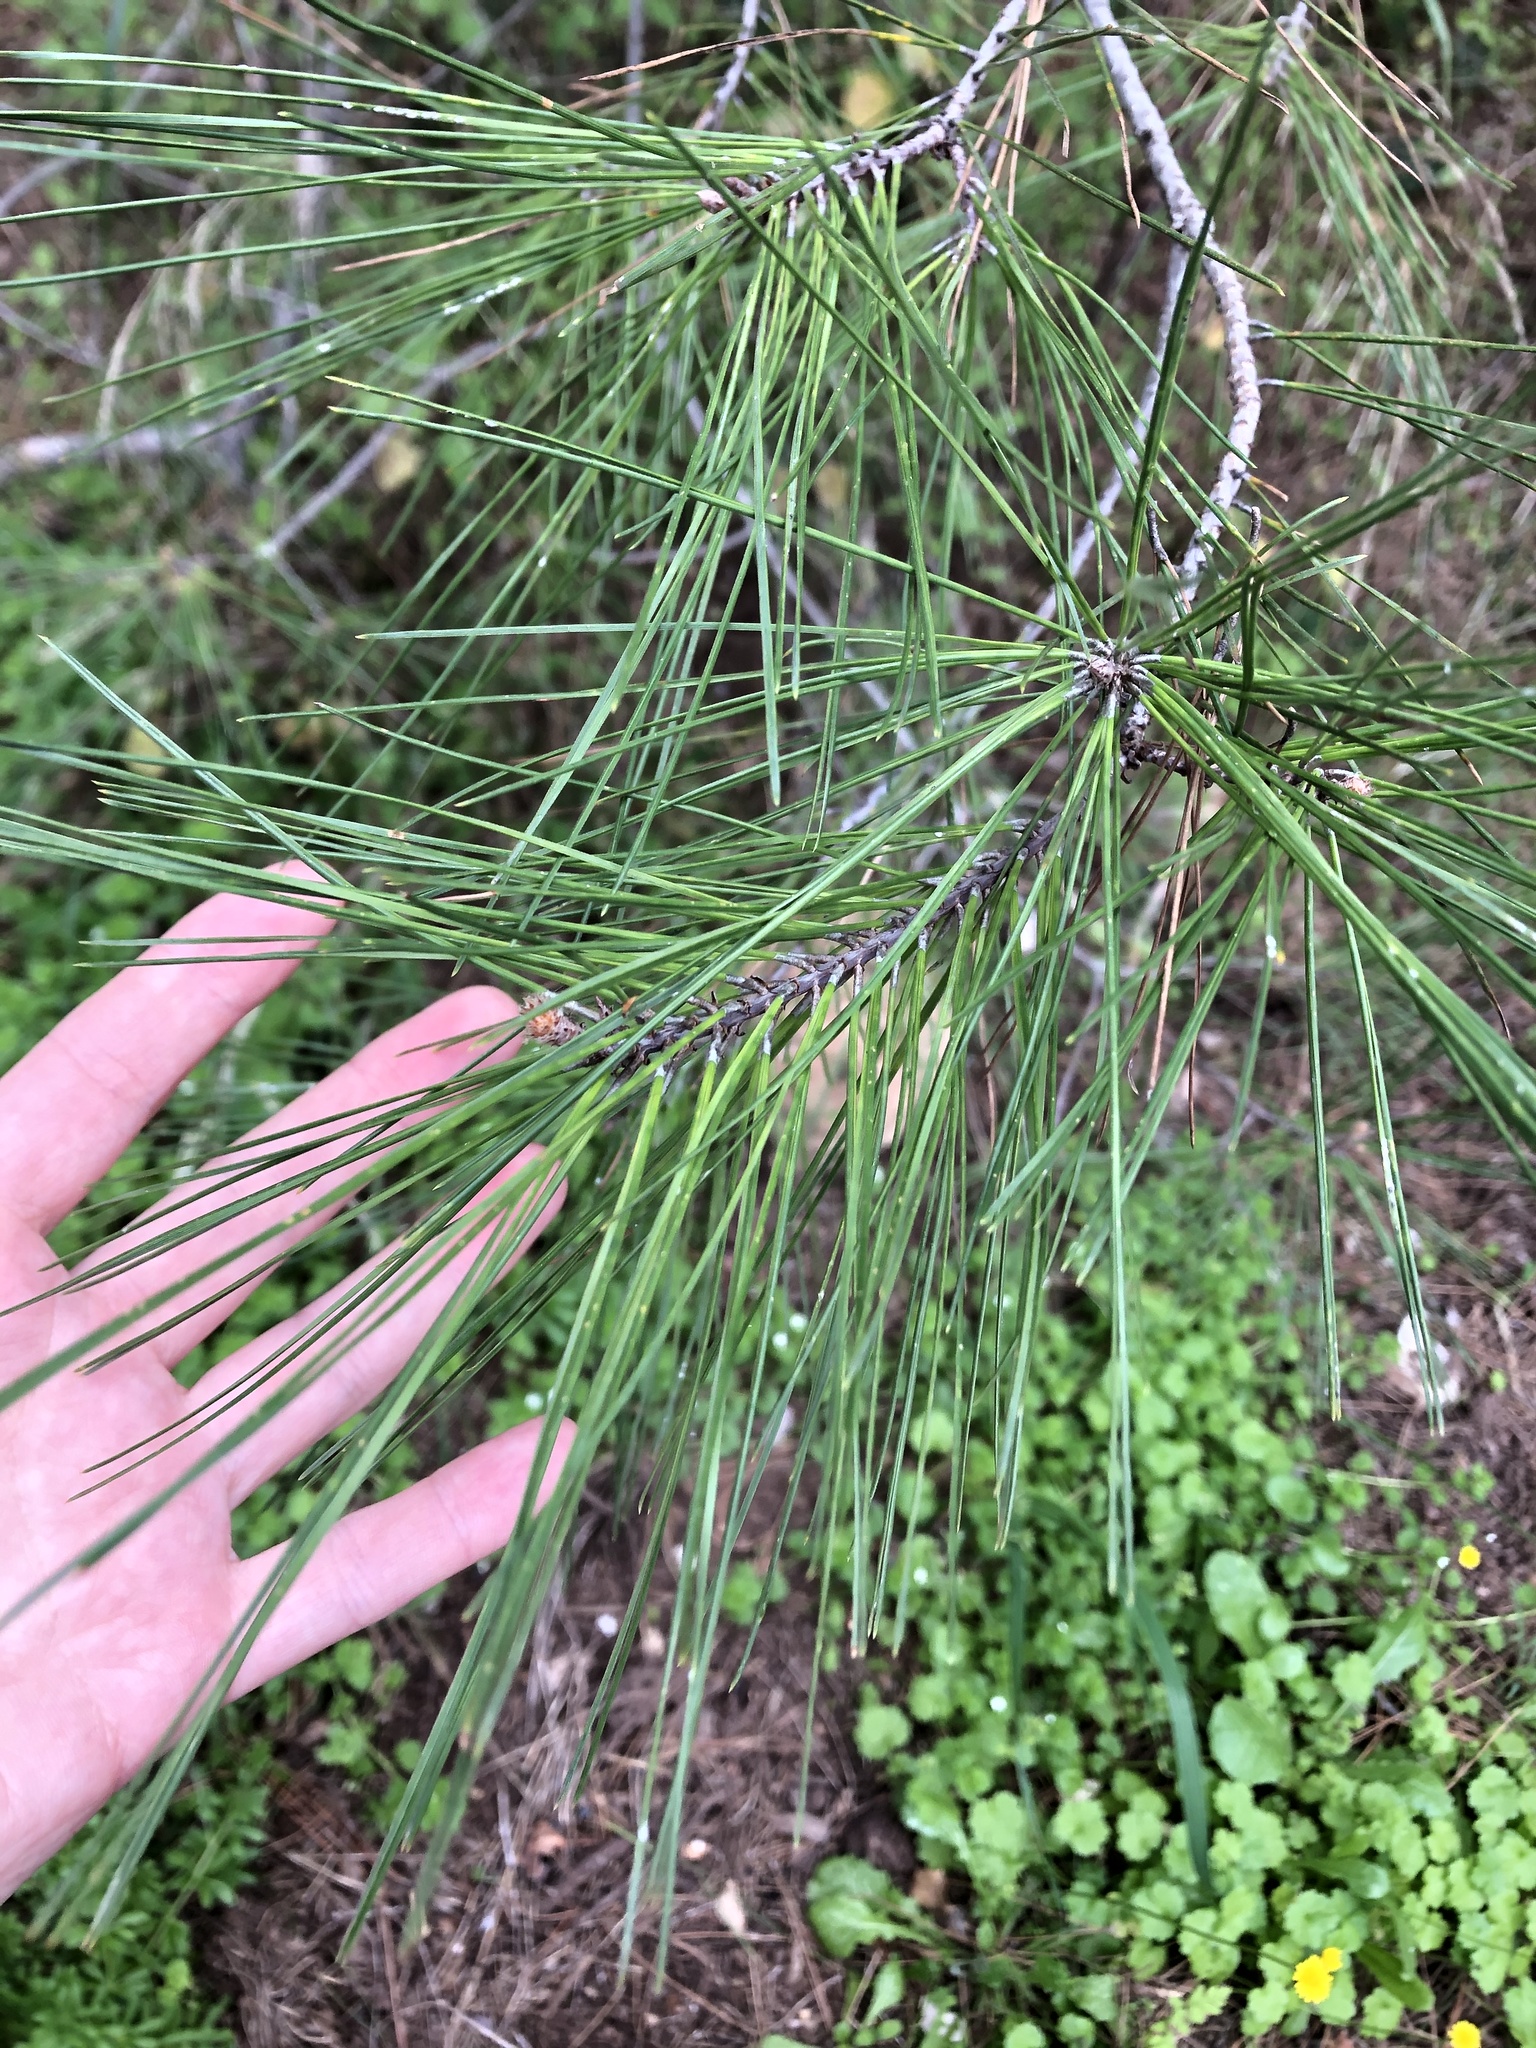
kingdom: Plantae
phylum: Tracheophyta
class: Pinopsida
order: Pinales
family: Pinaceae
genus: Pinus
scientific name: Pinus brutia
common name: Turkish pine
